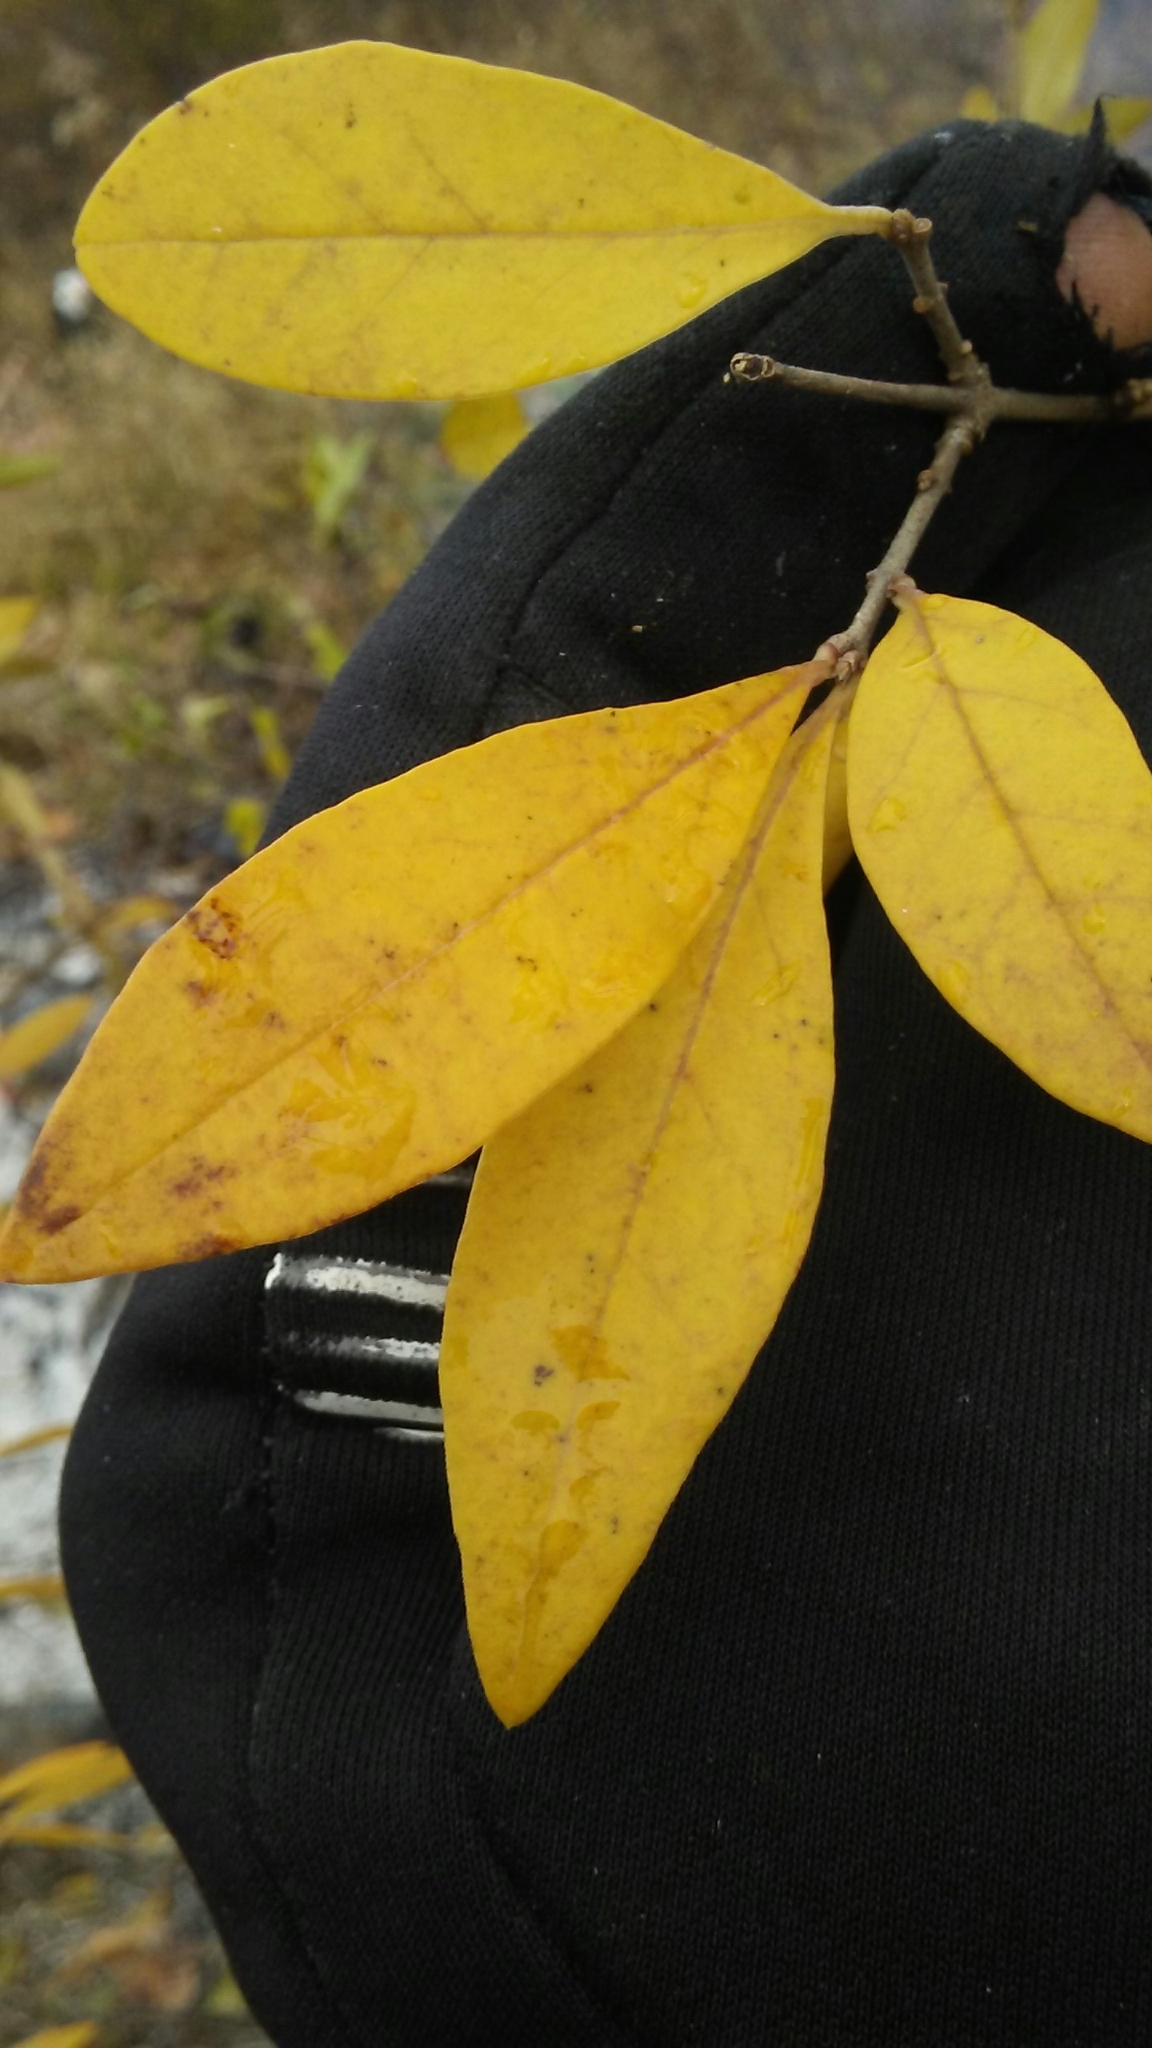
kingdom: Plantae
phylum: Tracheophyta
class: Magnoliopsida
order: Lamiales
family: Oleaceae
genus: Ligustrum
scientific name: Ligustrum obtusifolium
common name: Border privet
